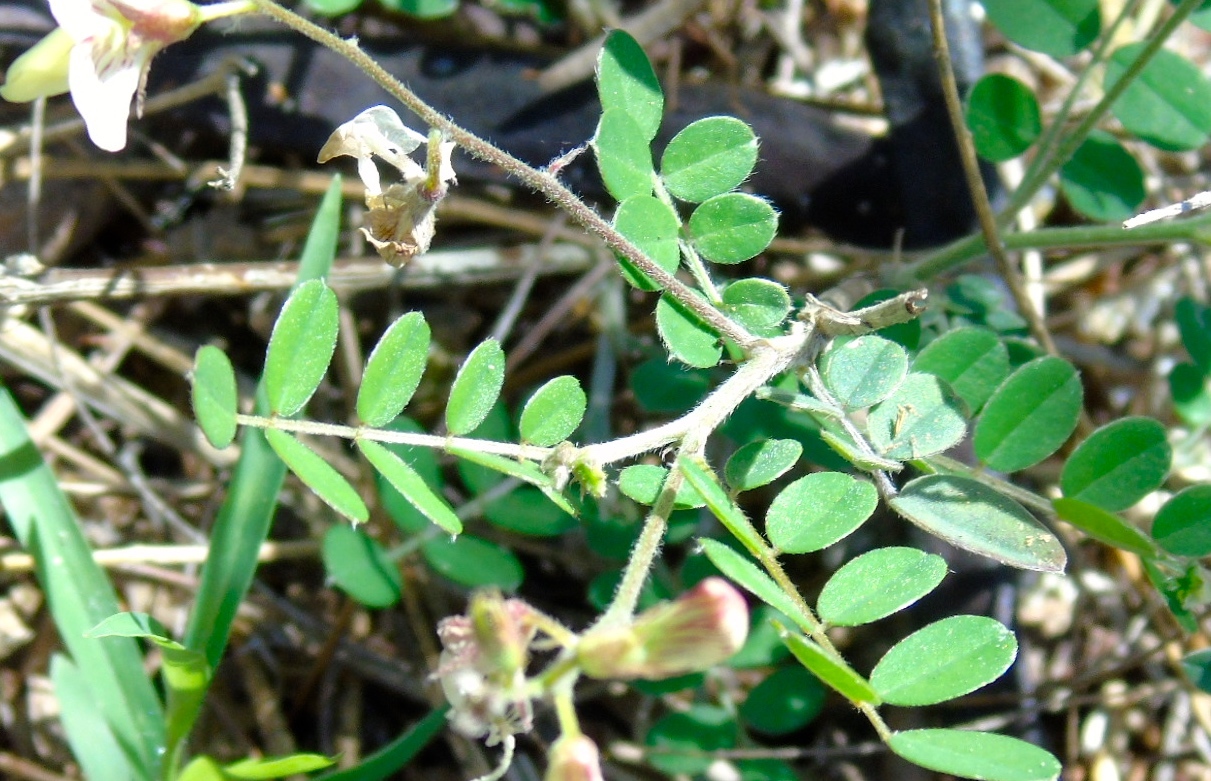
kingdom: Plantae
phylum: Tracheophyta
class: Magnoliopsida
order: Fabales
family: Fabaceae
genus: Coursetia
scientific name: Coursetia caribaea
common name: Anil falso
